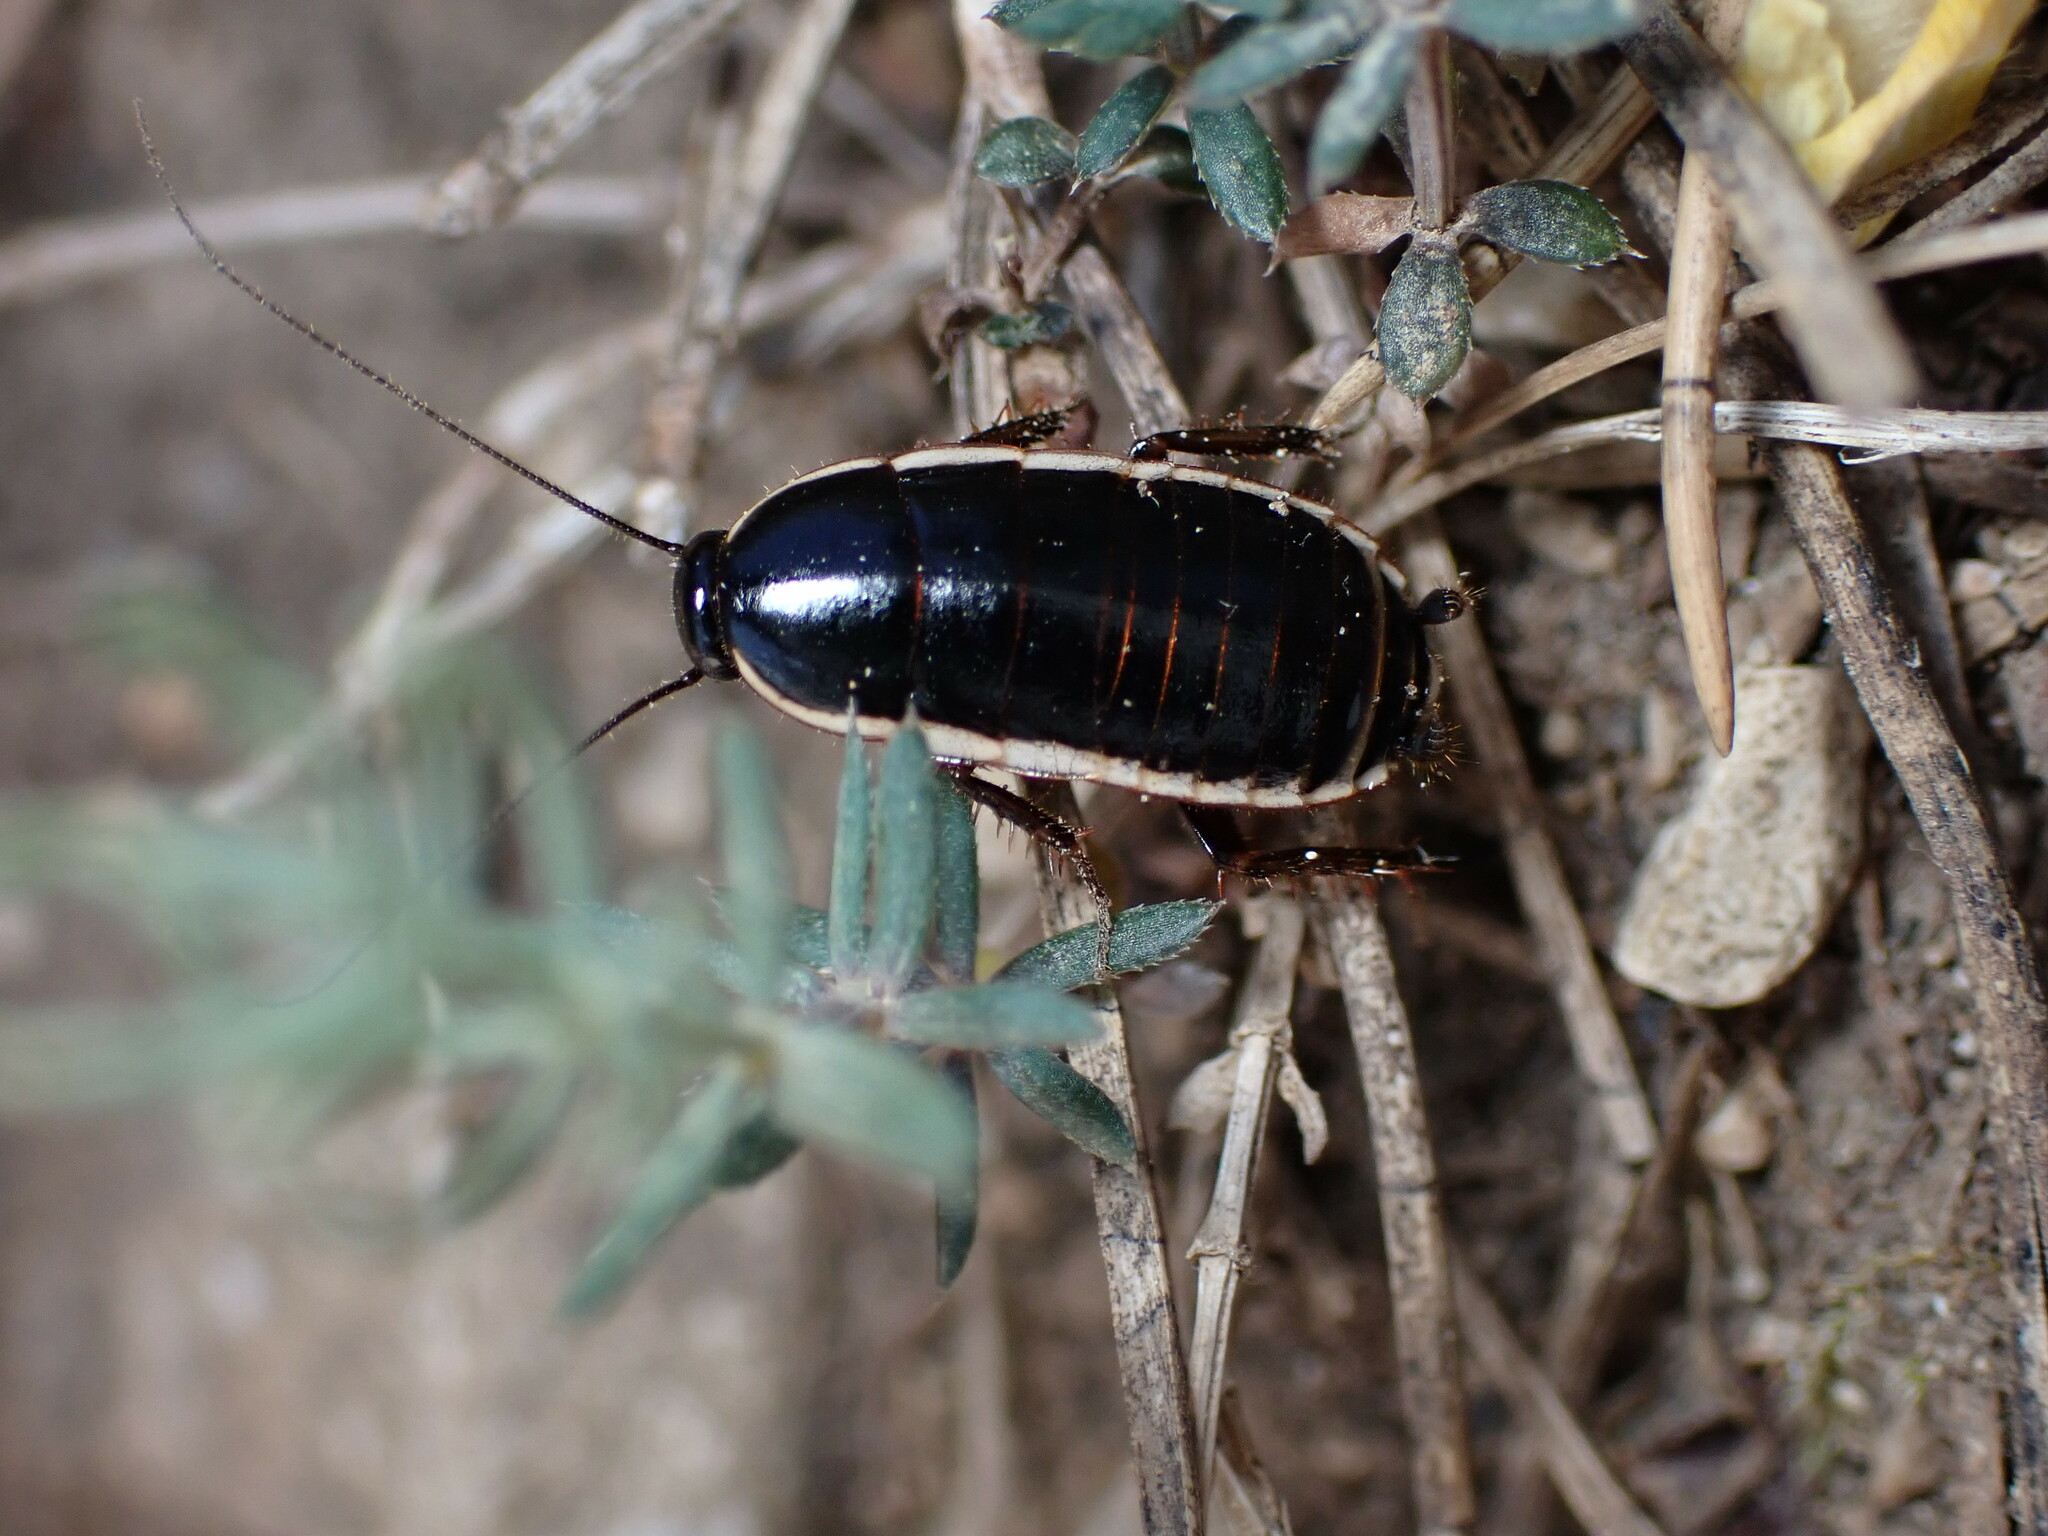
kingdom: Animalia
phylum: Arthropoda
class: Insecta
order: Blattodea
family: Ectobiidae
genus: Loboptera
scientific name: Loboptera decipiens
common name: Lobe-winged cockroach
